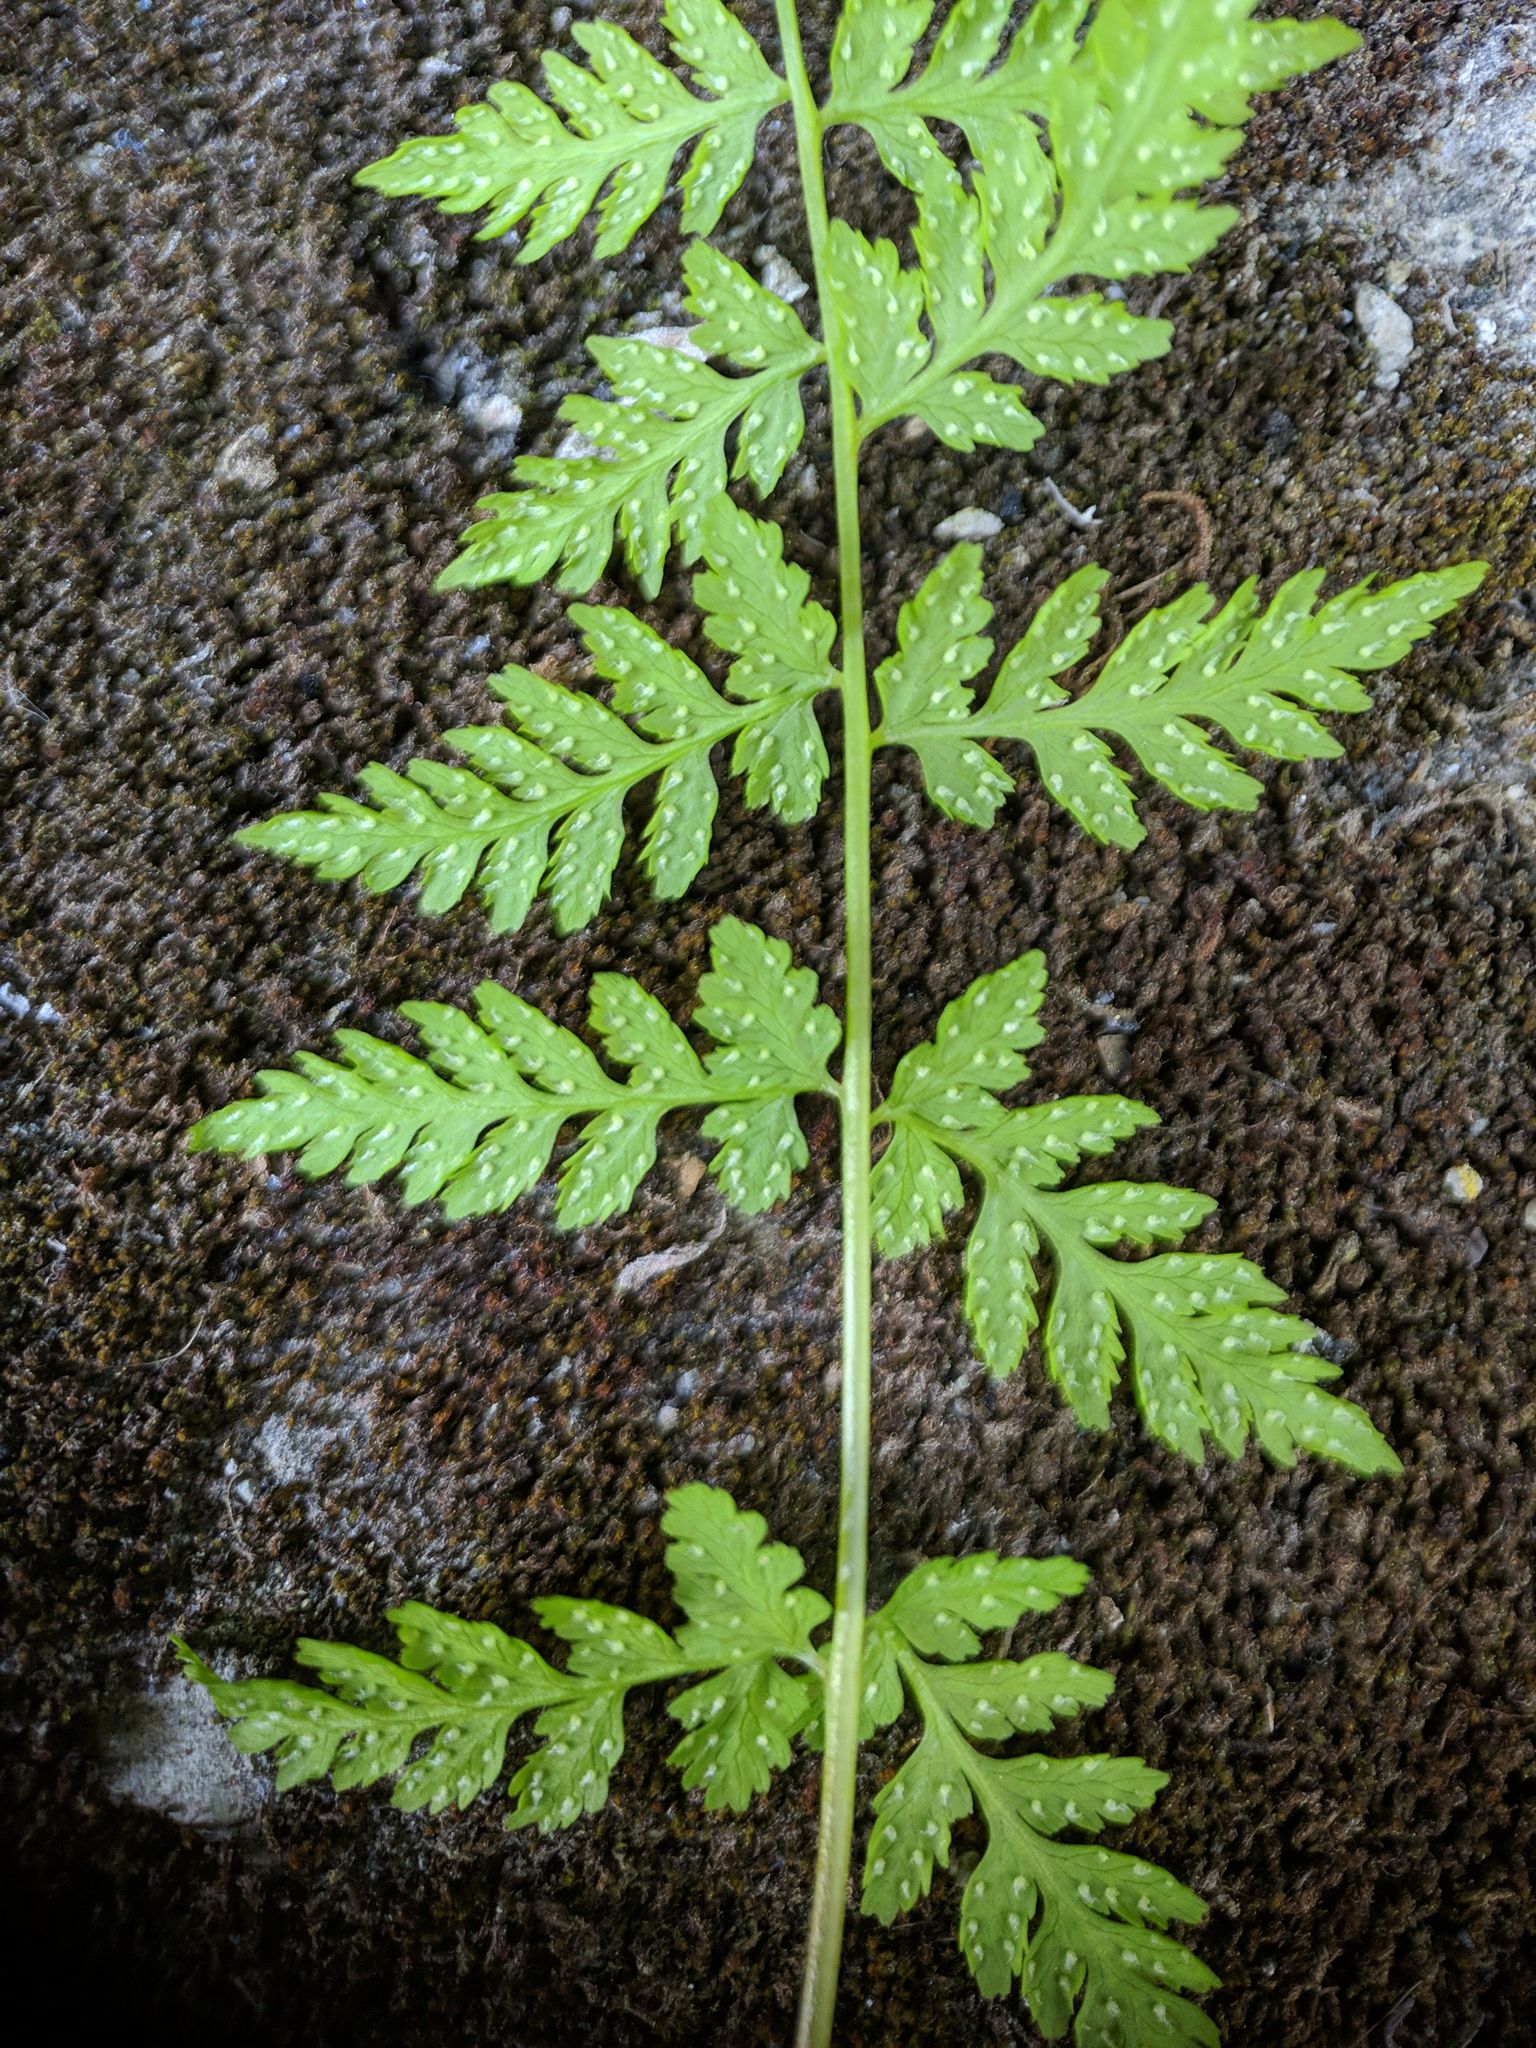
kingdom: Plantae
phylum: Tracheophyta
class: Polypodiopsida
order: Polypodiales
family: Cystopteridaceae
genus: Cystopteris
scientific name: Cystopteris fragilis
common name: Brittle bladder fern
